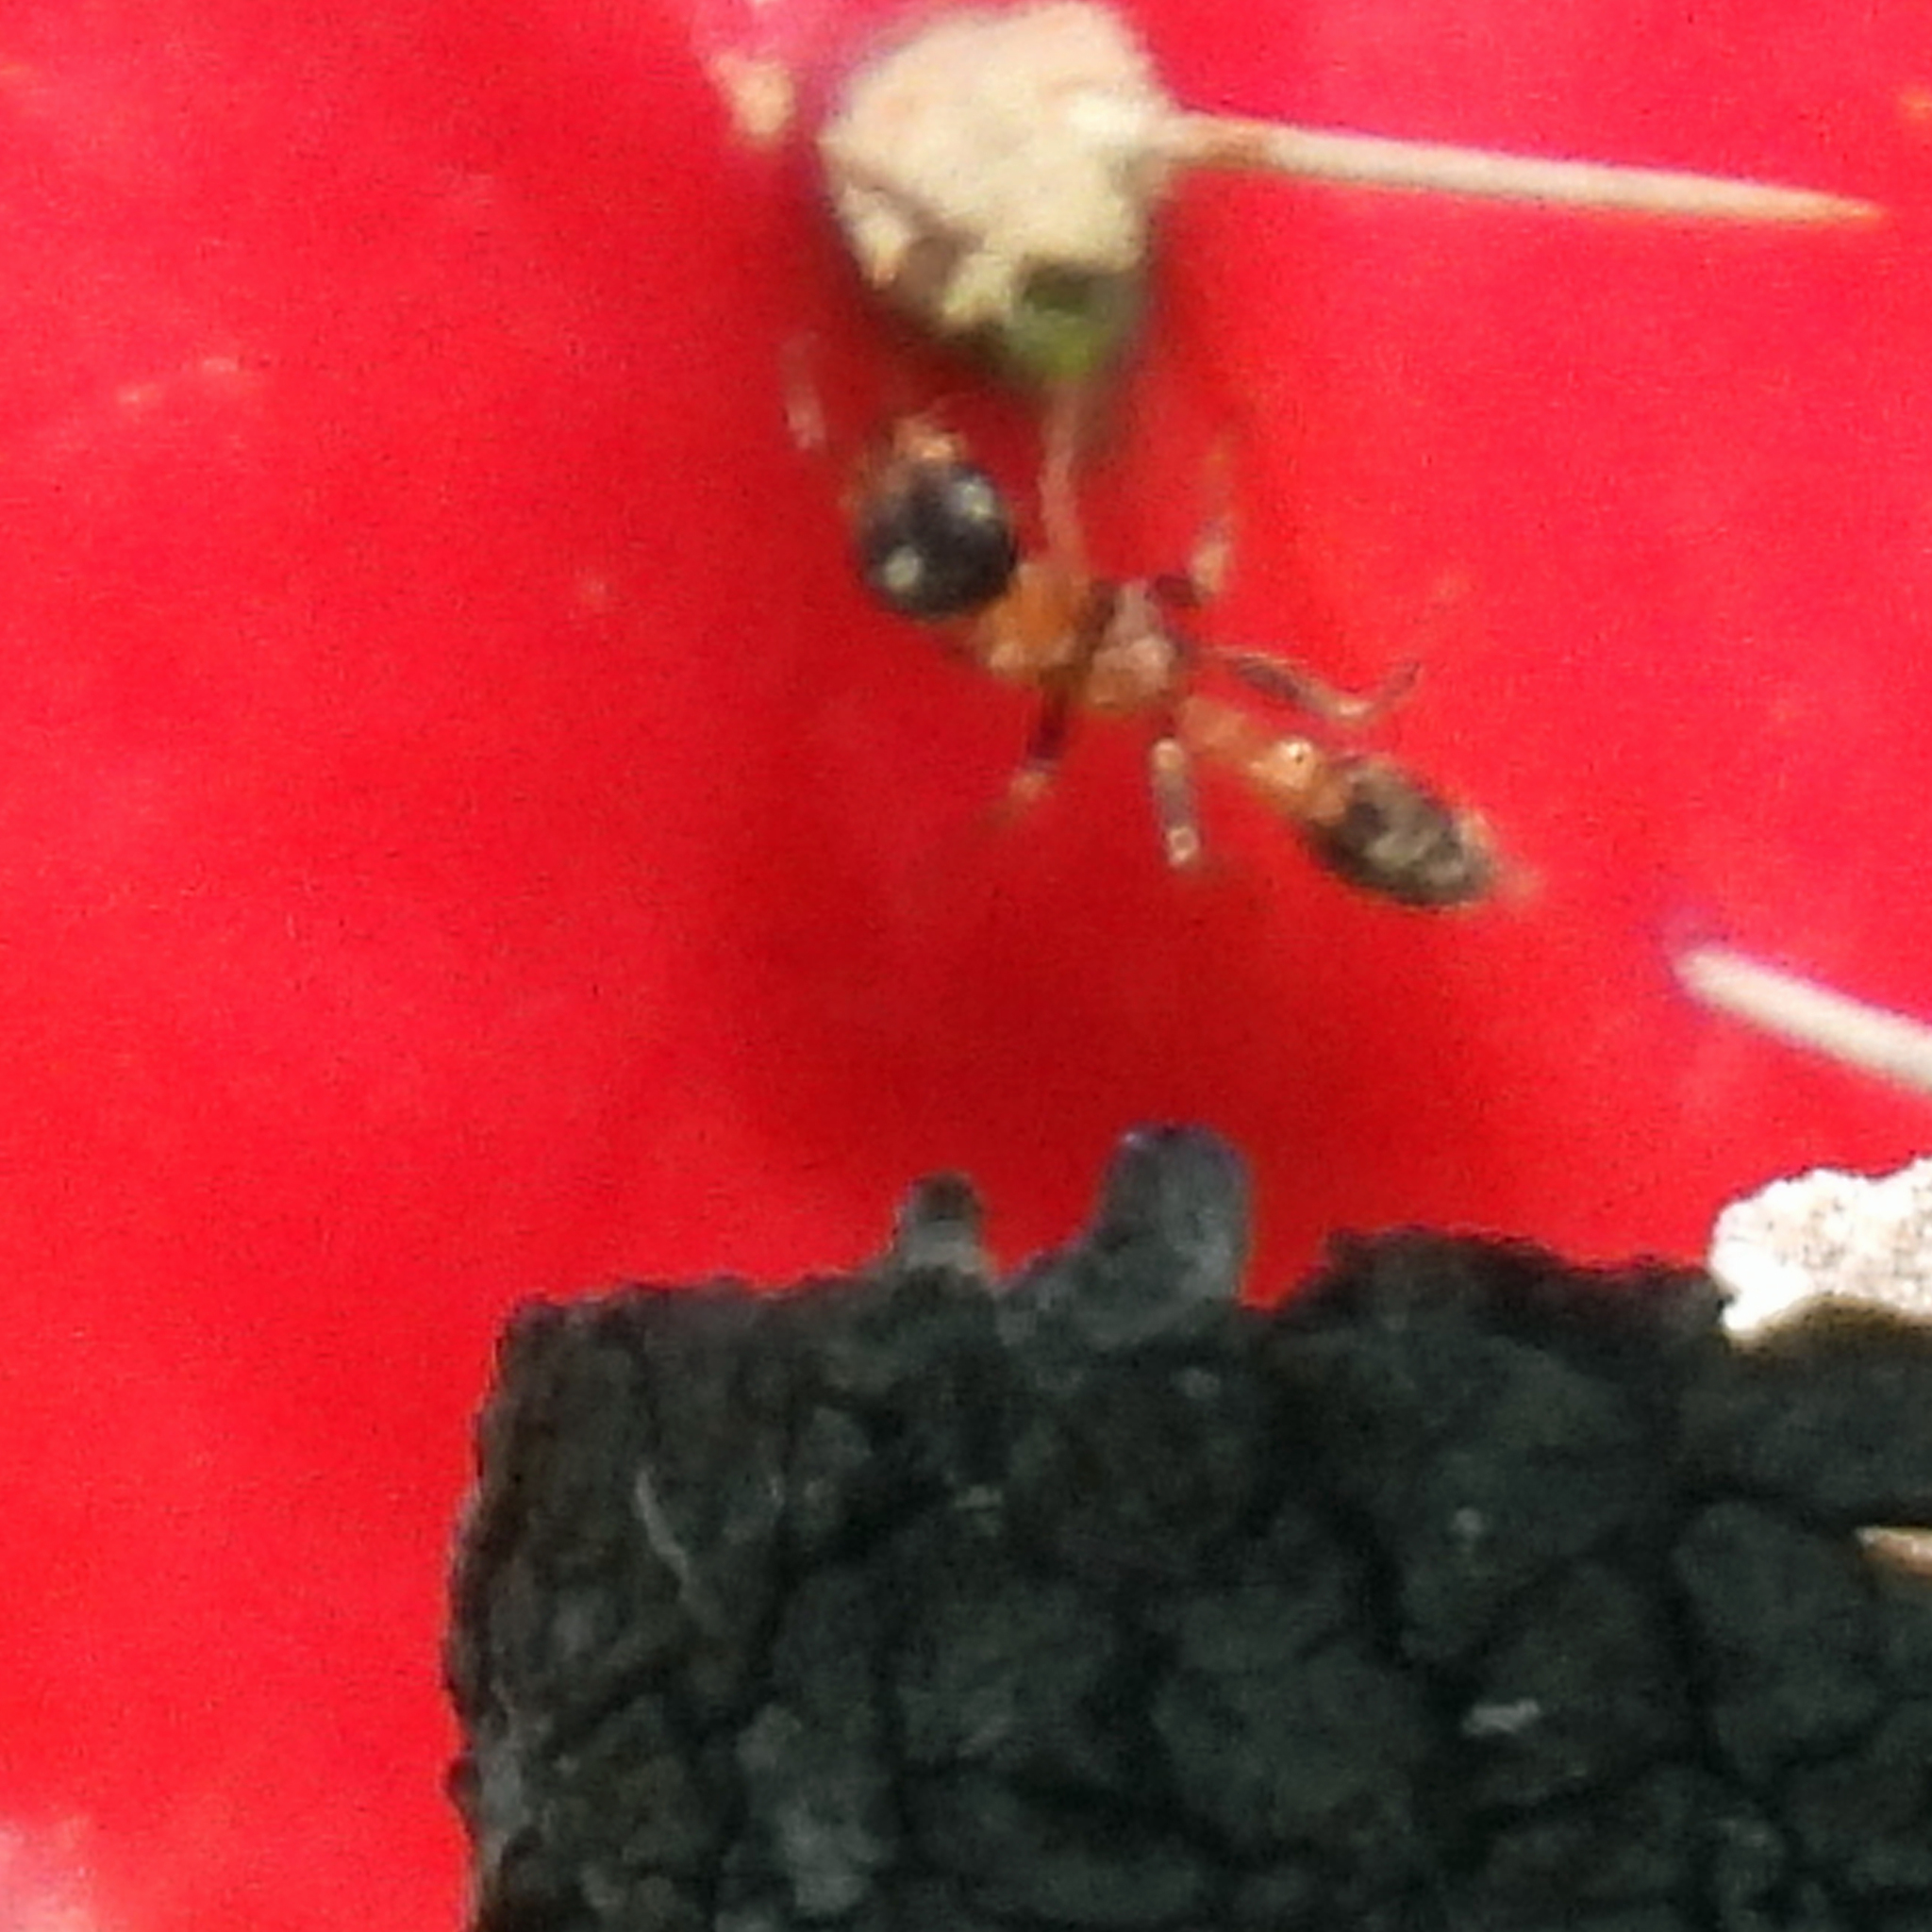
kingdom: Animalia
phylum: Arthropoda
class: Insecta
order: Hymenoptera
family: Formicidae
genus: Pseudomyrmex
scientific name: Pseudomyrmex gracilis
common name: Graceful twig ant
